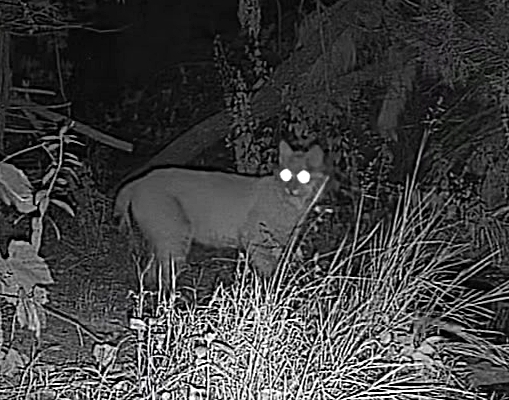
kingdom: Animalia
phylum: Chordata
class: Mammalia
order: Carnivora
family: Felidae
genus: Lynx
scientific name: Lynx rufus
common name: Bobcat
